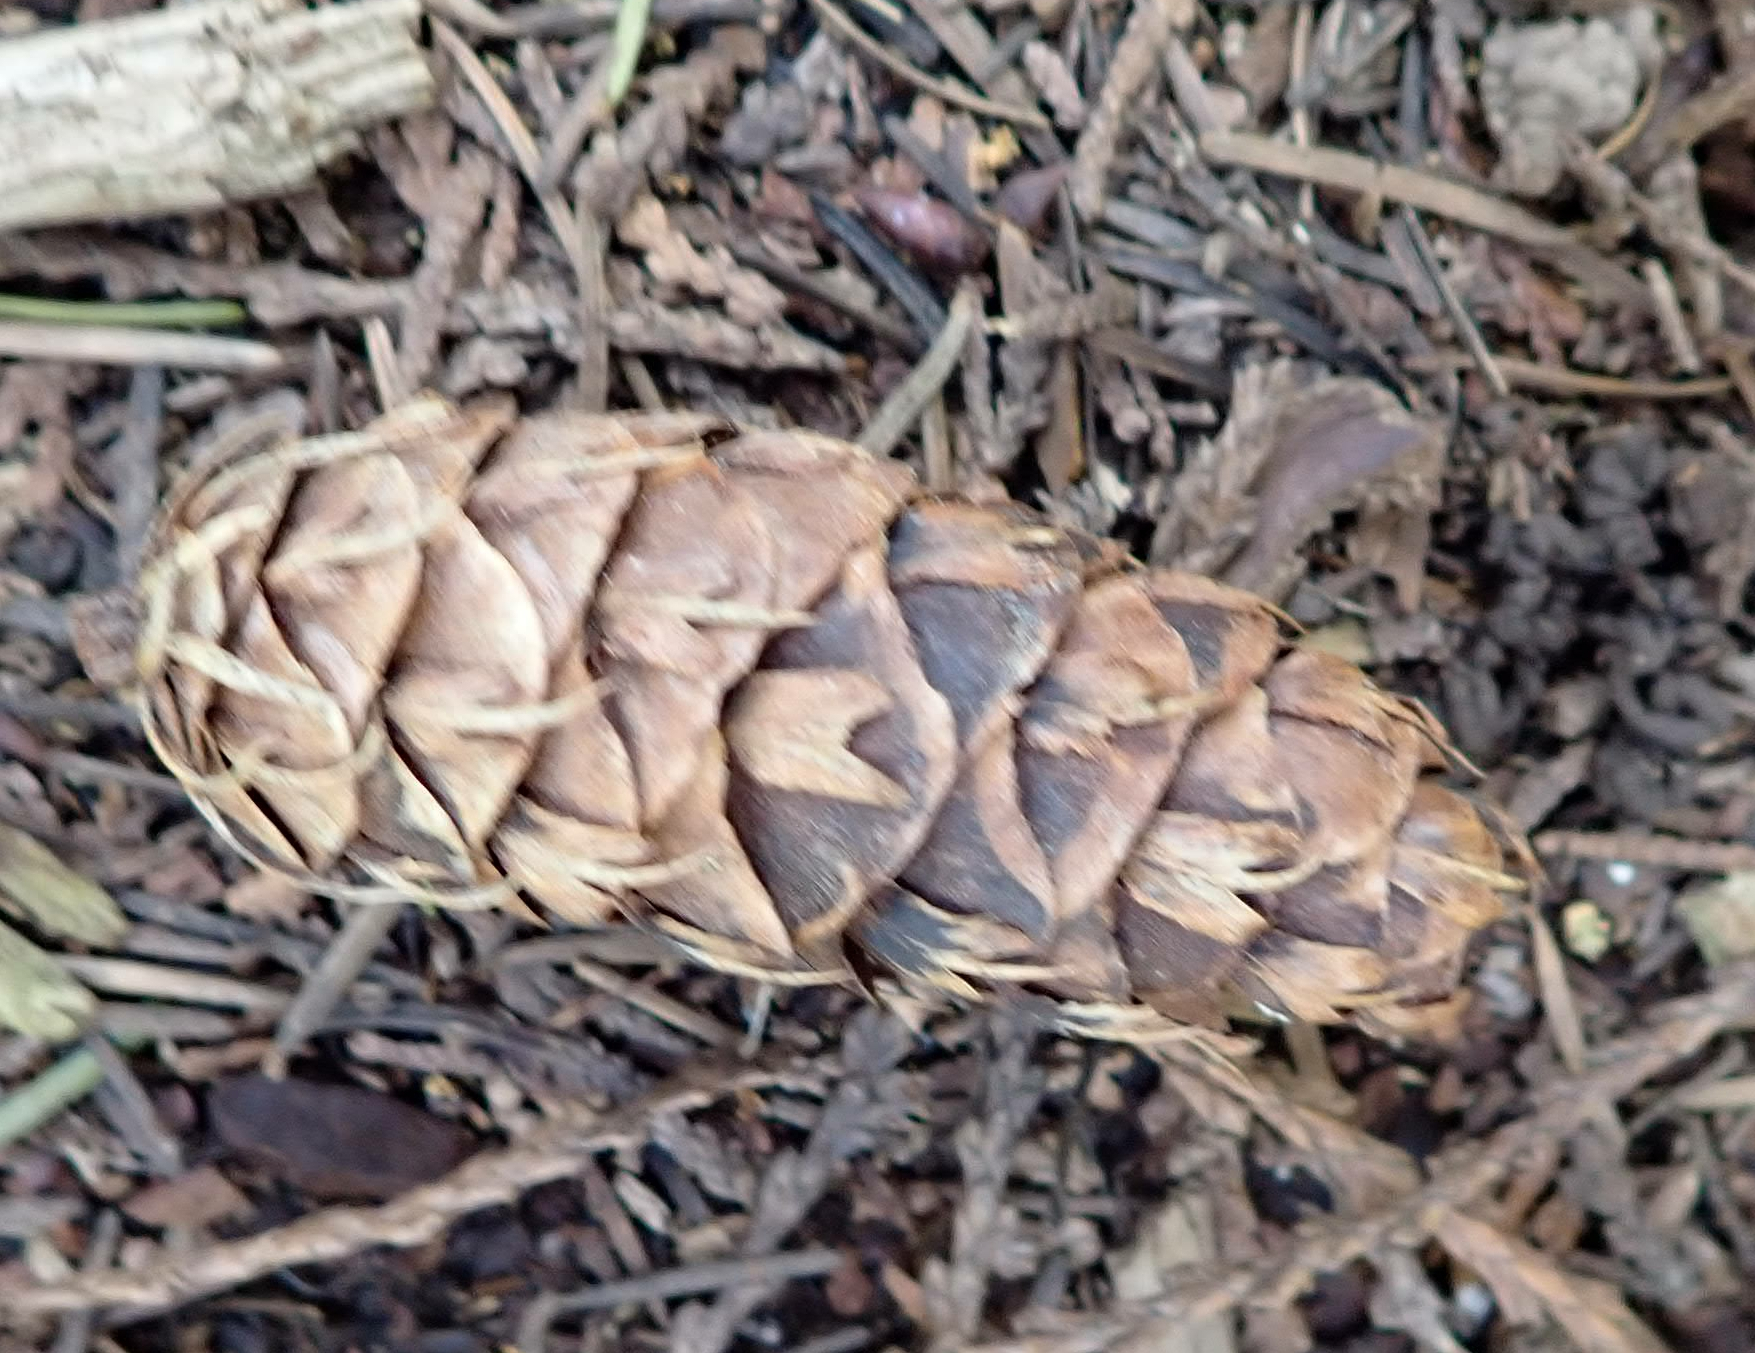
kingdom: Plantae
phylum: Tracheophyta
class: Pinopsida
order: Pinales
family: Pinaceae
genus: Pseudotsuga
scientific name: Pseudotsuga menziesii
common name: Douglas fir
